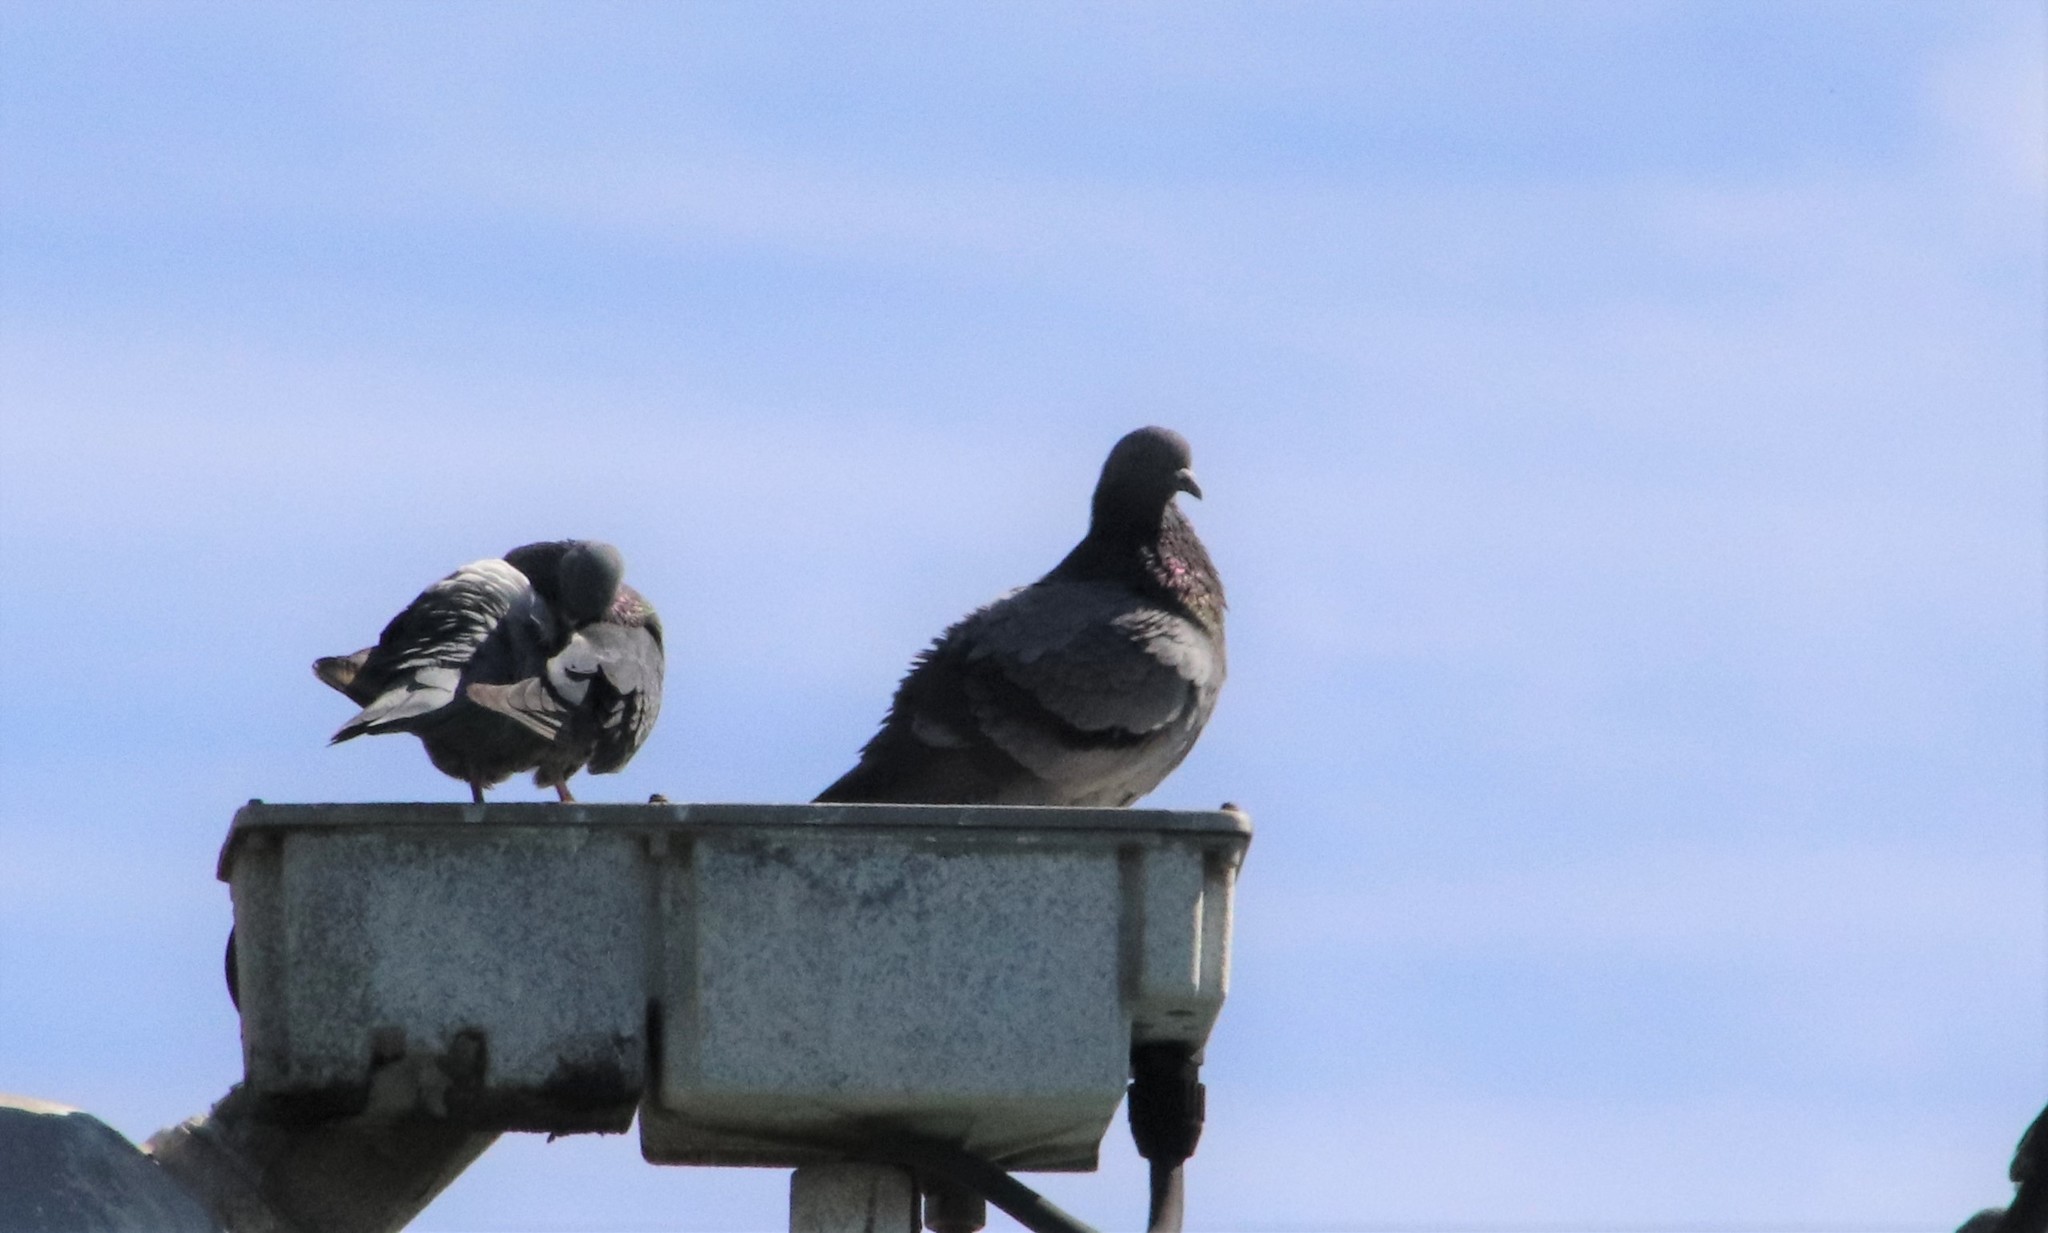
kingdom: Animalia
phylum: Chordata
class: Aves
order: Columbiformes
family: Columbidae
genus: Columba
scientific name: Columba livia
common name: Rock pigeon
